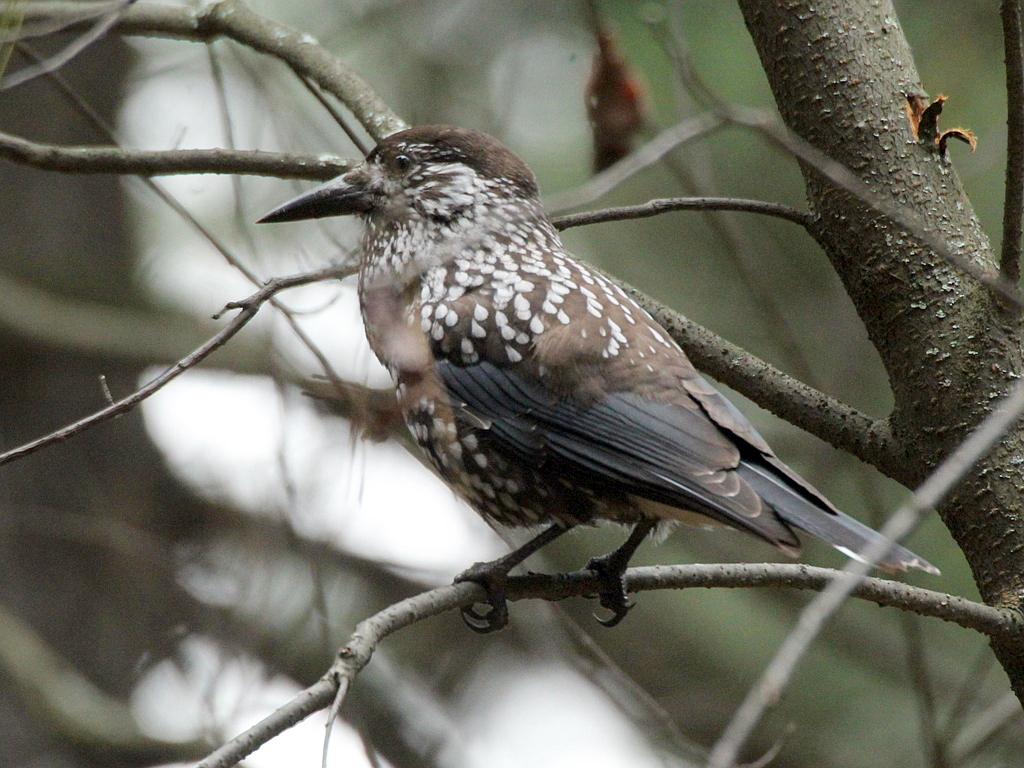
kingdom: Animalia
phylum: Chordata
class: Aves
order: Passeriformes
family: Corvidae
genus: Nucifraga
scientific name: Nucifraga caryocatactes
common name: Spotted nutcracker
